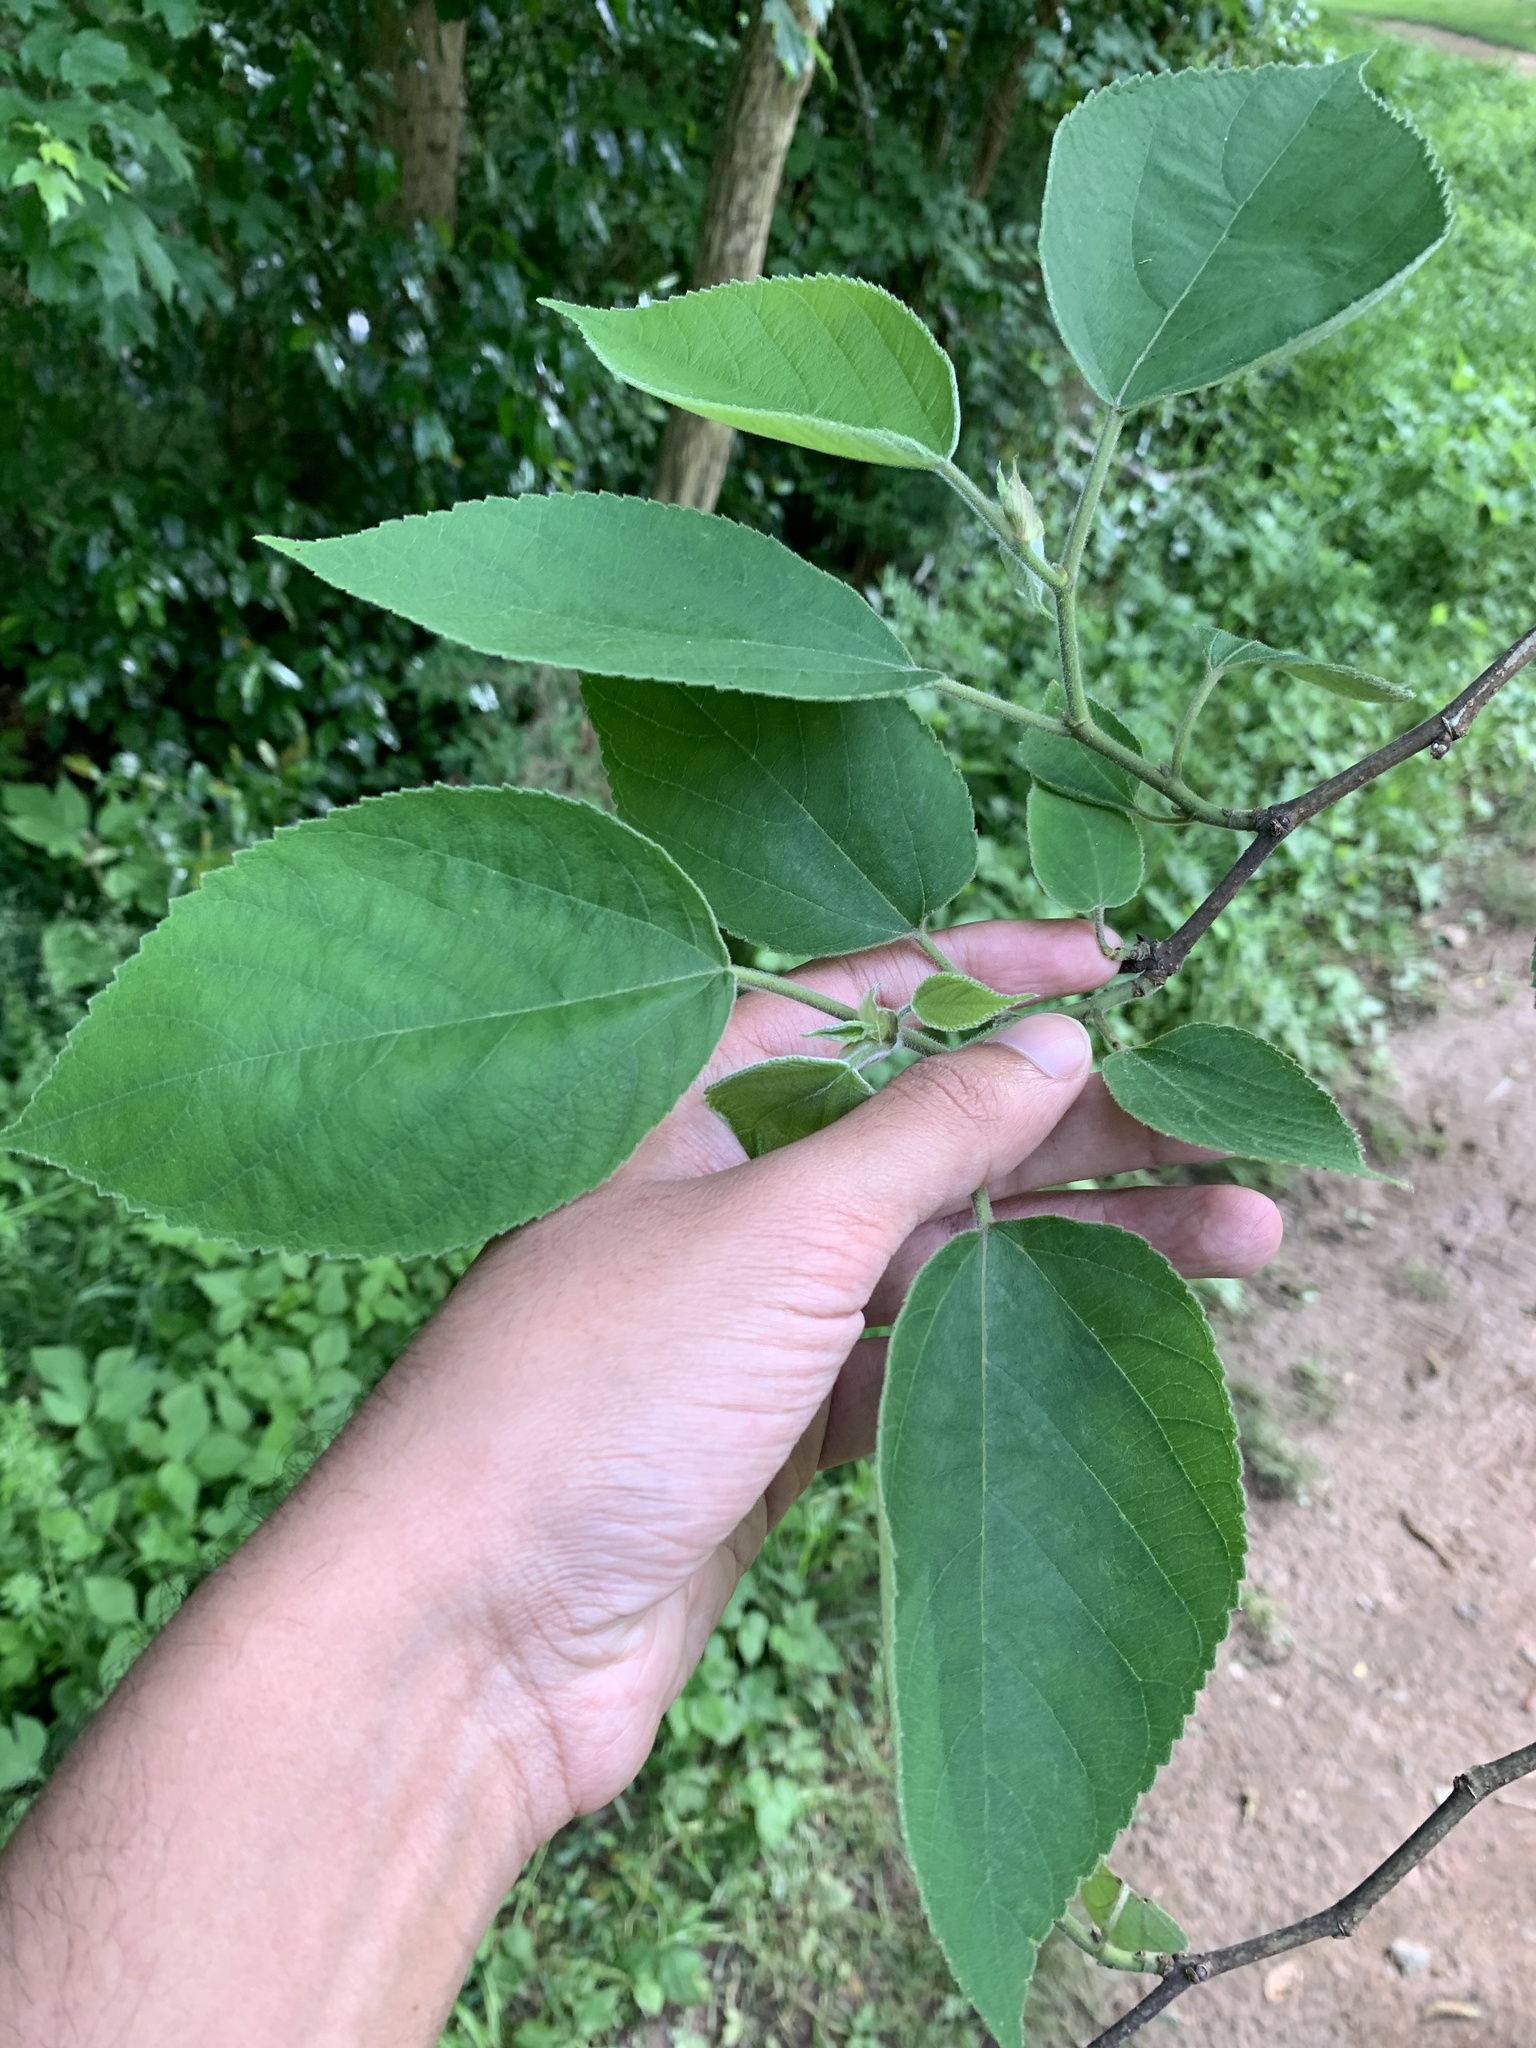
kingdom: Plantae
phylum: Tracheophyta
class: Magnoliopsida
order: Rosales
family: Moraceae
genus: Broussonetia
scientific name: Broussonetia papyrifera
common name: Paper mulberry
